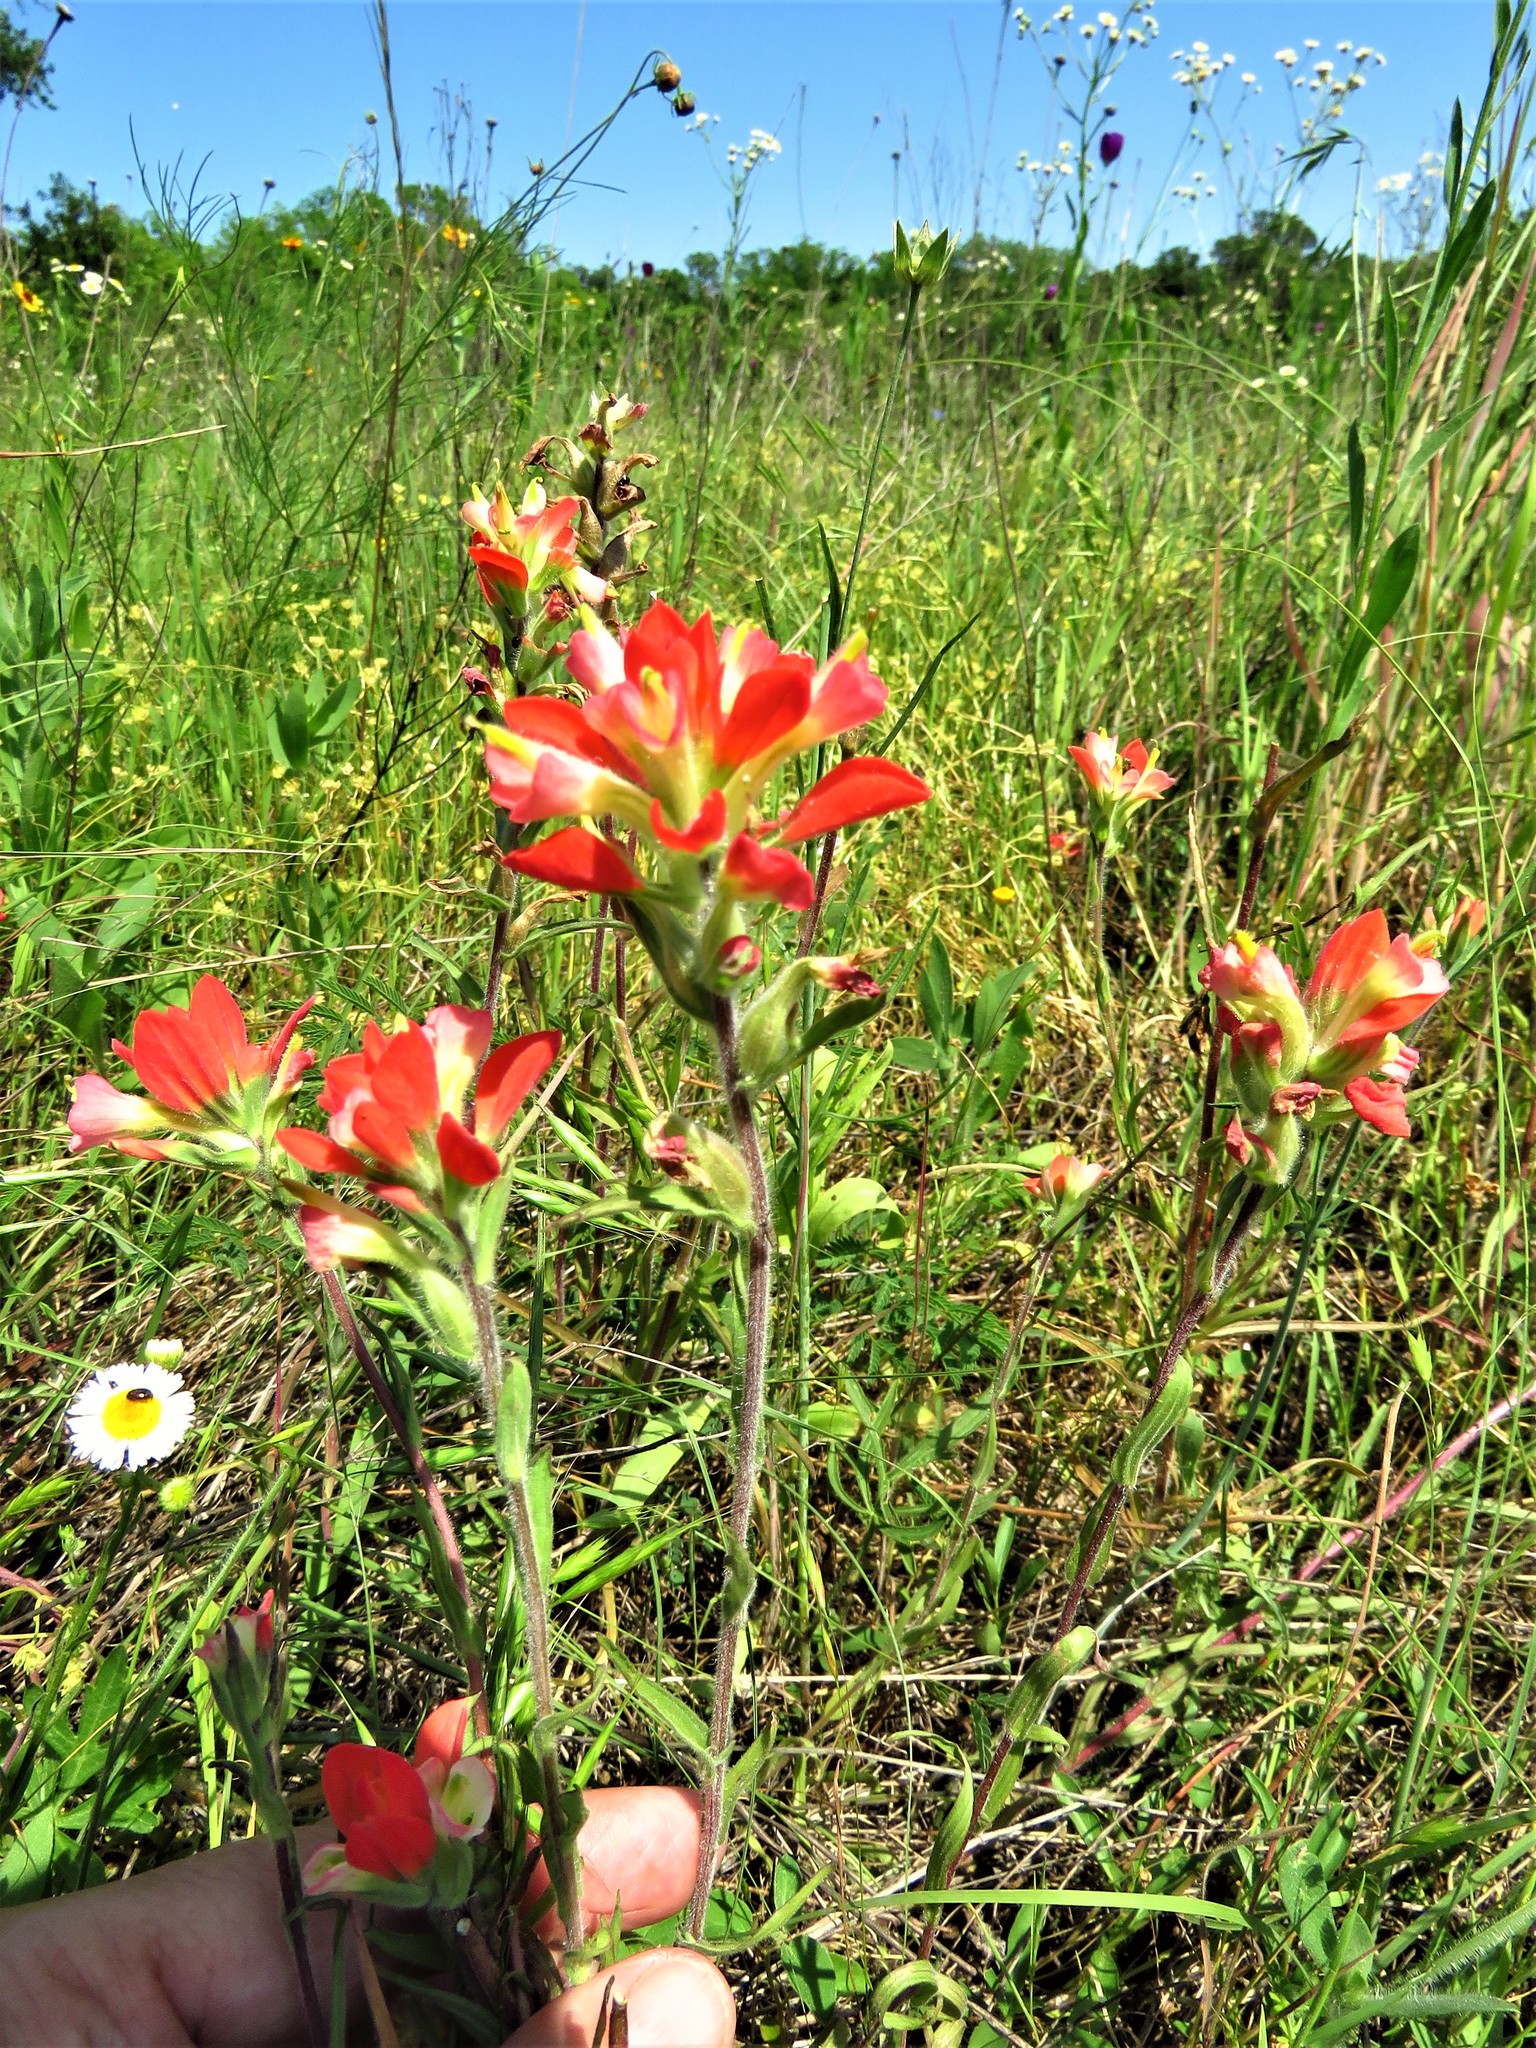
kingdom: Plantae
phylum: Tracheophyta
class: Magnoliopsida
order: Lamiales
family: Orobanchaceae
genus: Castilleja
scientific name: Castilleja indivisa
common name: Texas paintbrush
